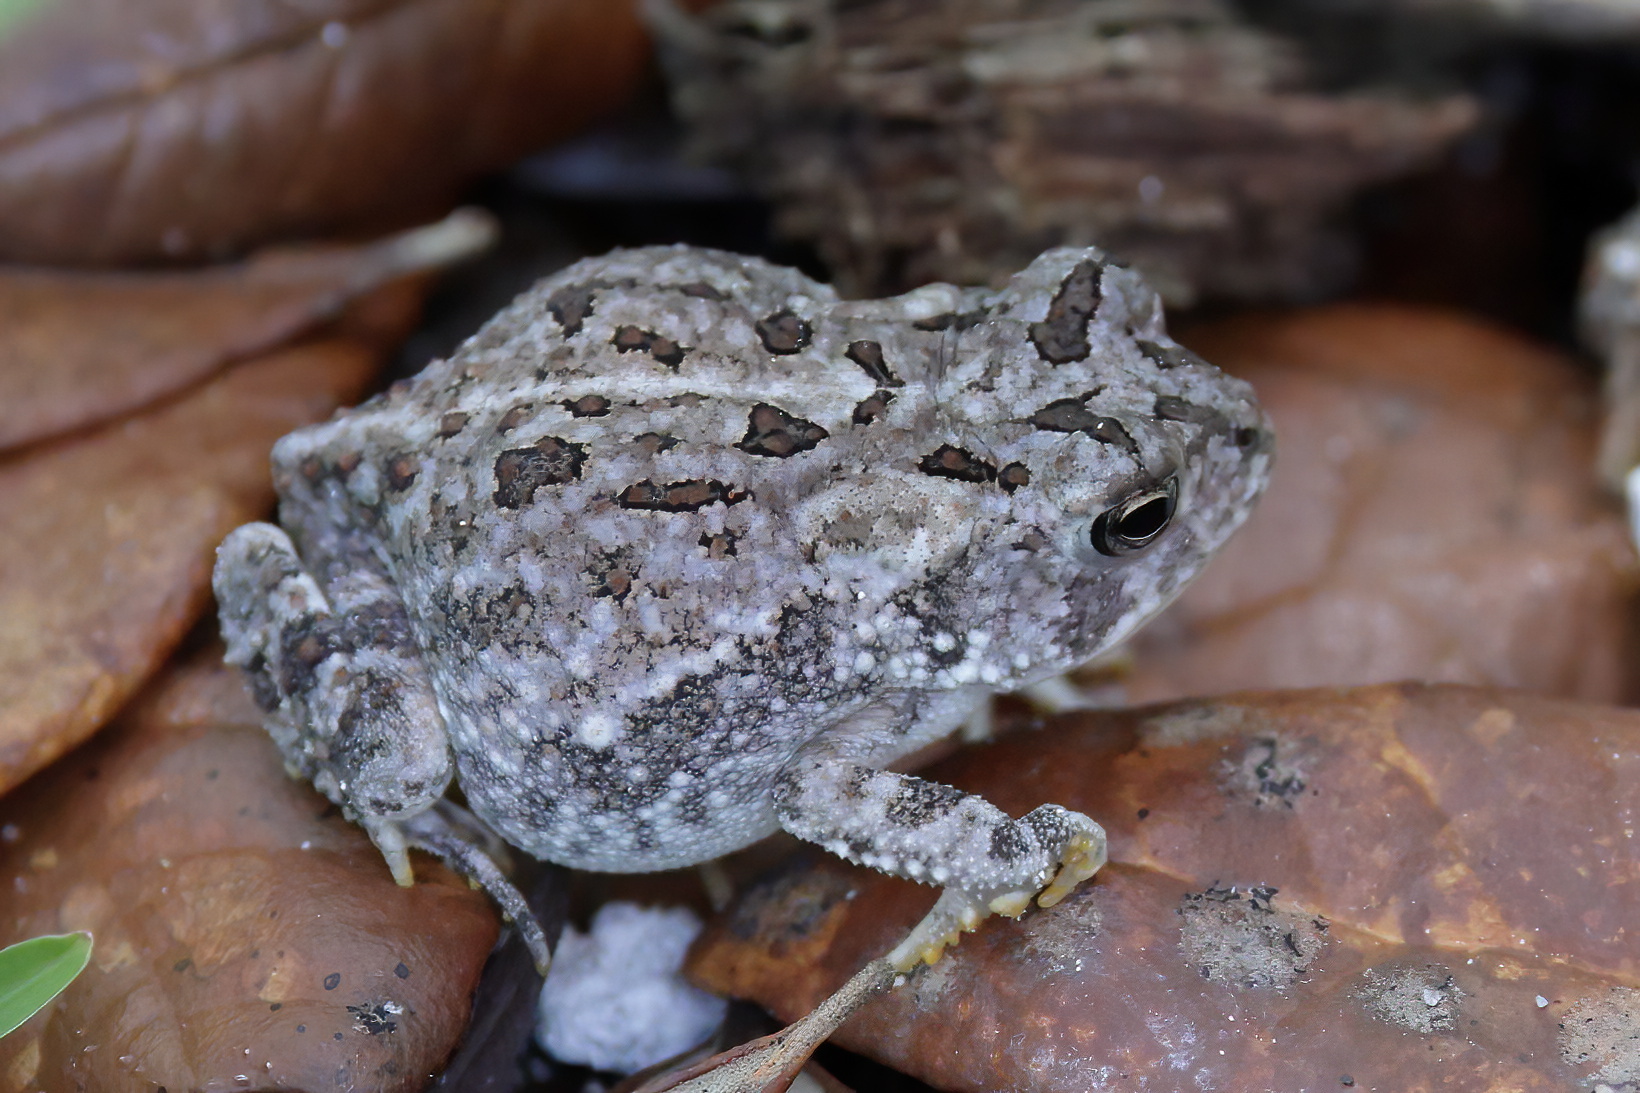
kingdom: Animalia
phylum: Chordata
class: Amphibia
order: Anura
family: Bufonidae
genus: Anaxyrus
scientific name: Anaxyrus terrestris
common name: Southern toad
